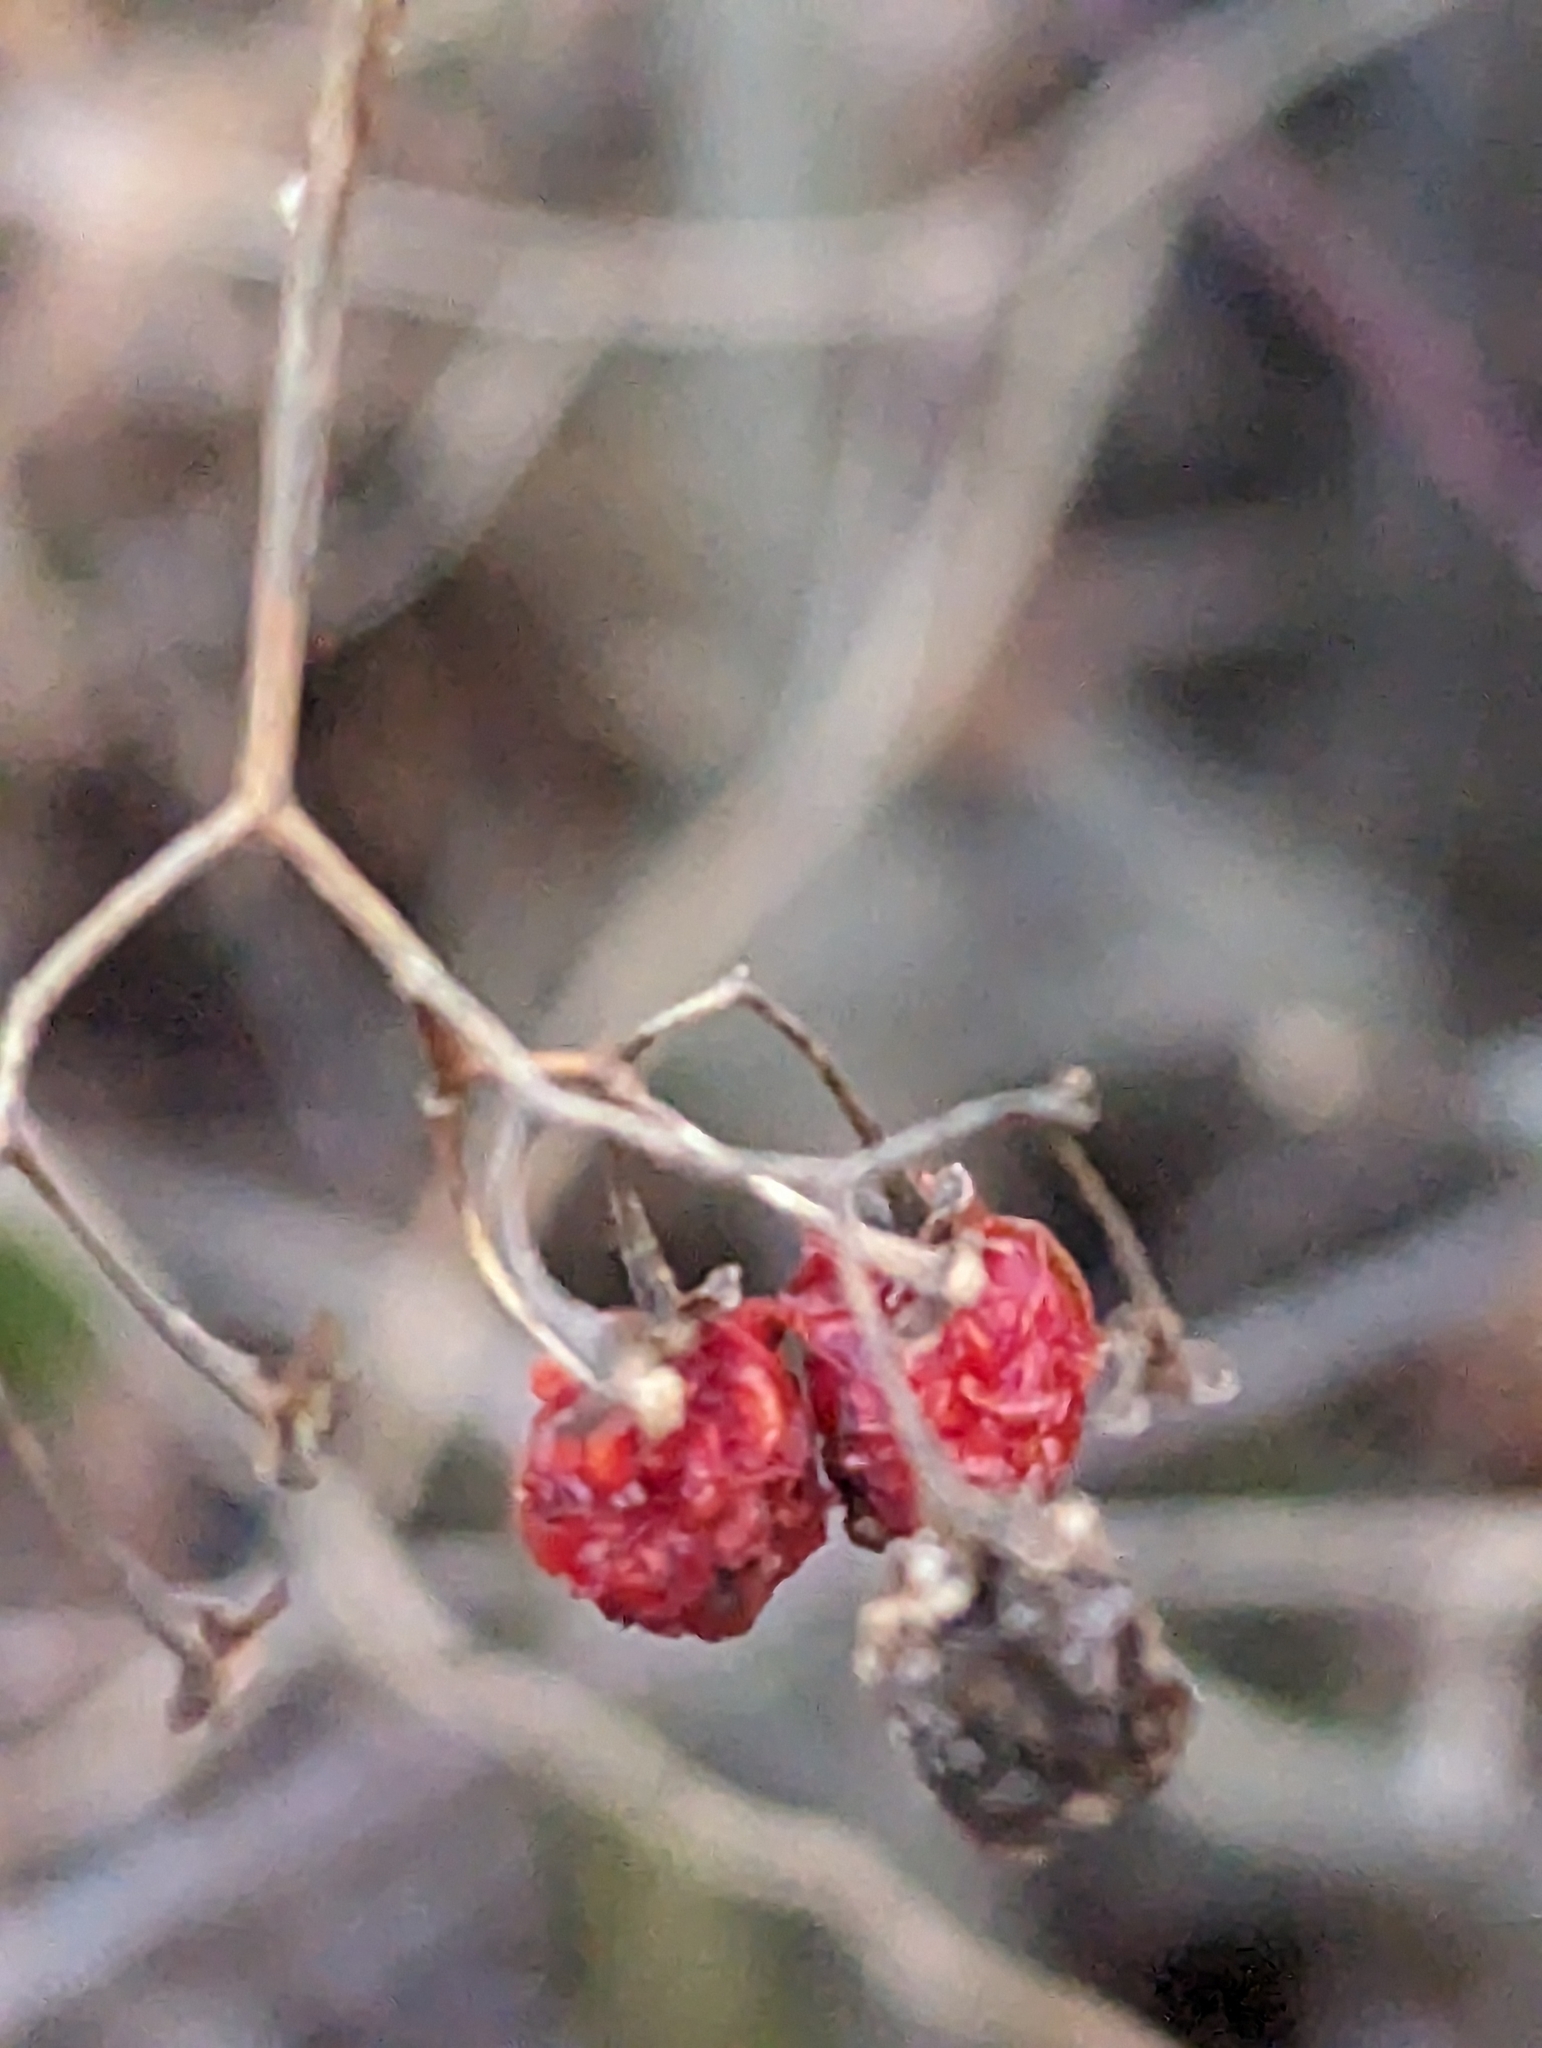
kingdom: Plantae
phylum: Tracheophyta
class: Magnoliopsida
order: Solanales
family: Solanaceae
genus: Solanum
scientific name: Solanum dulcamara
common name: Climbing nightshade
